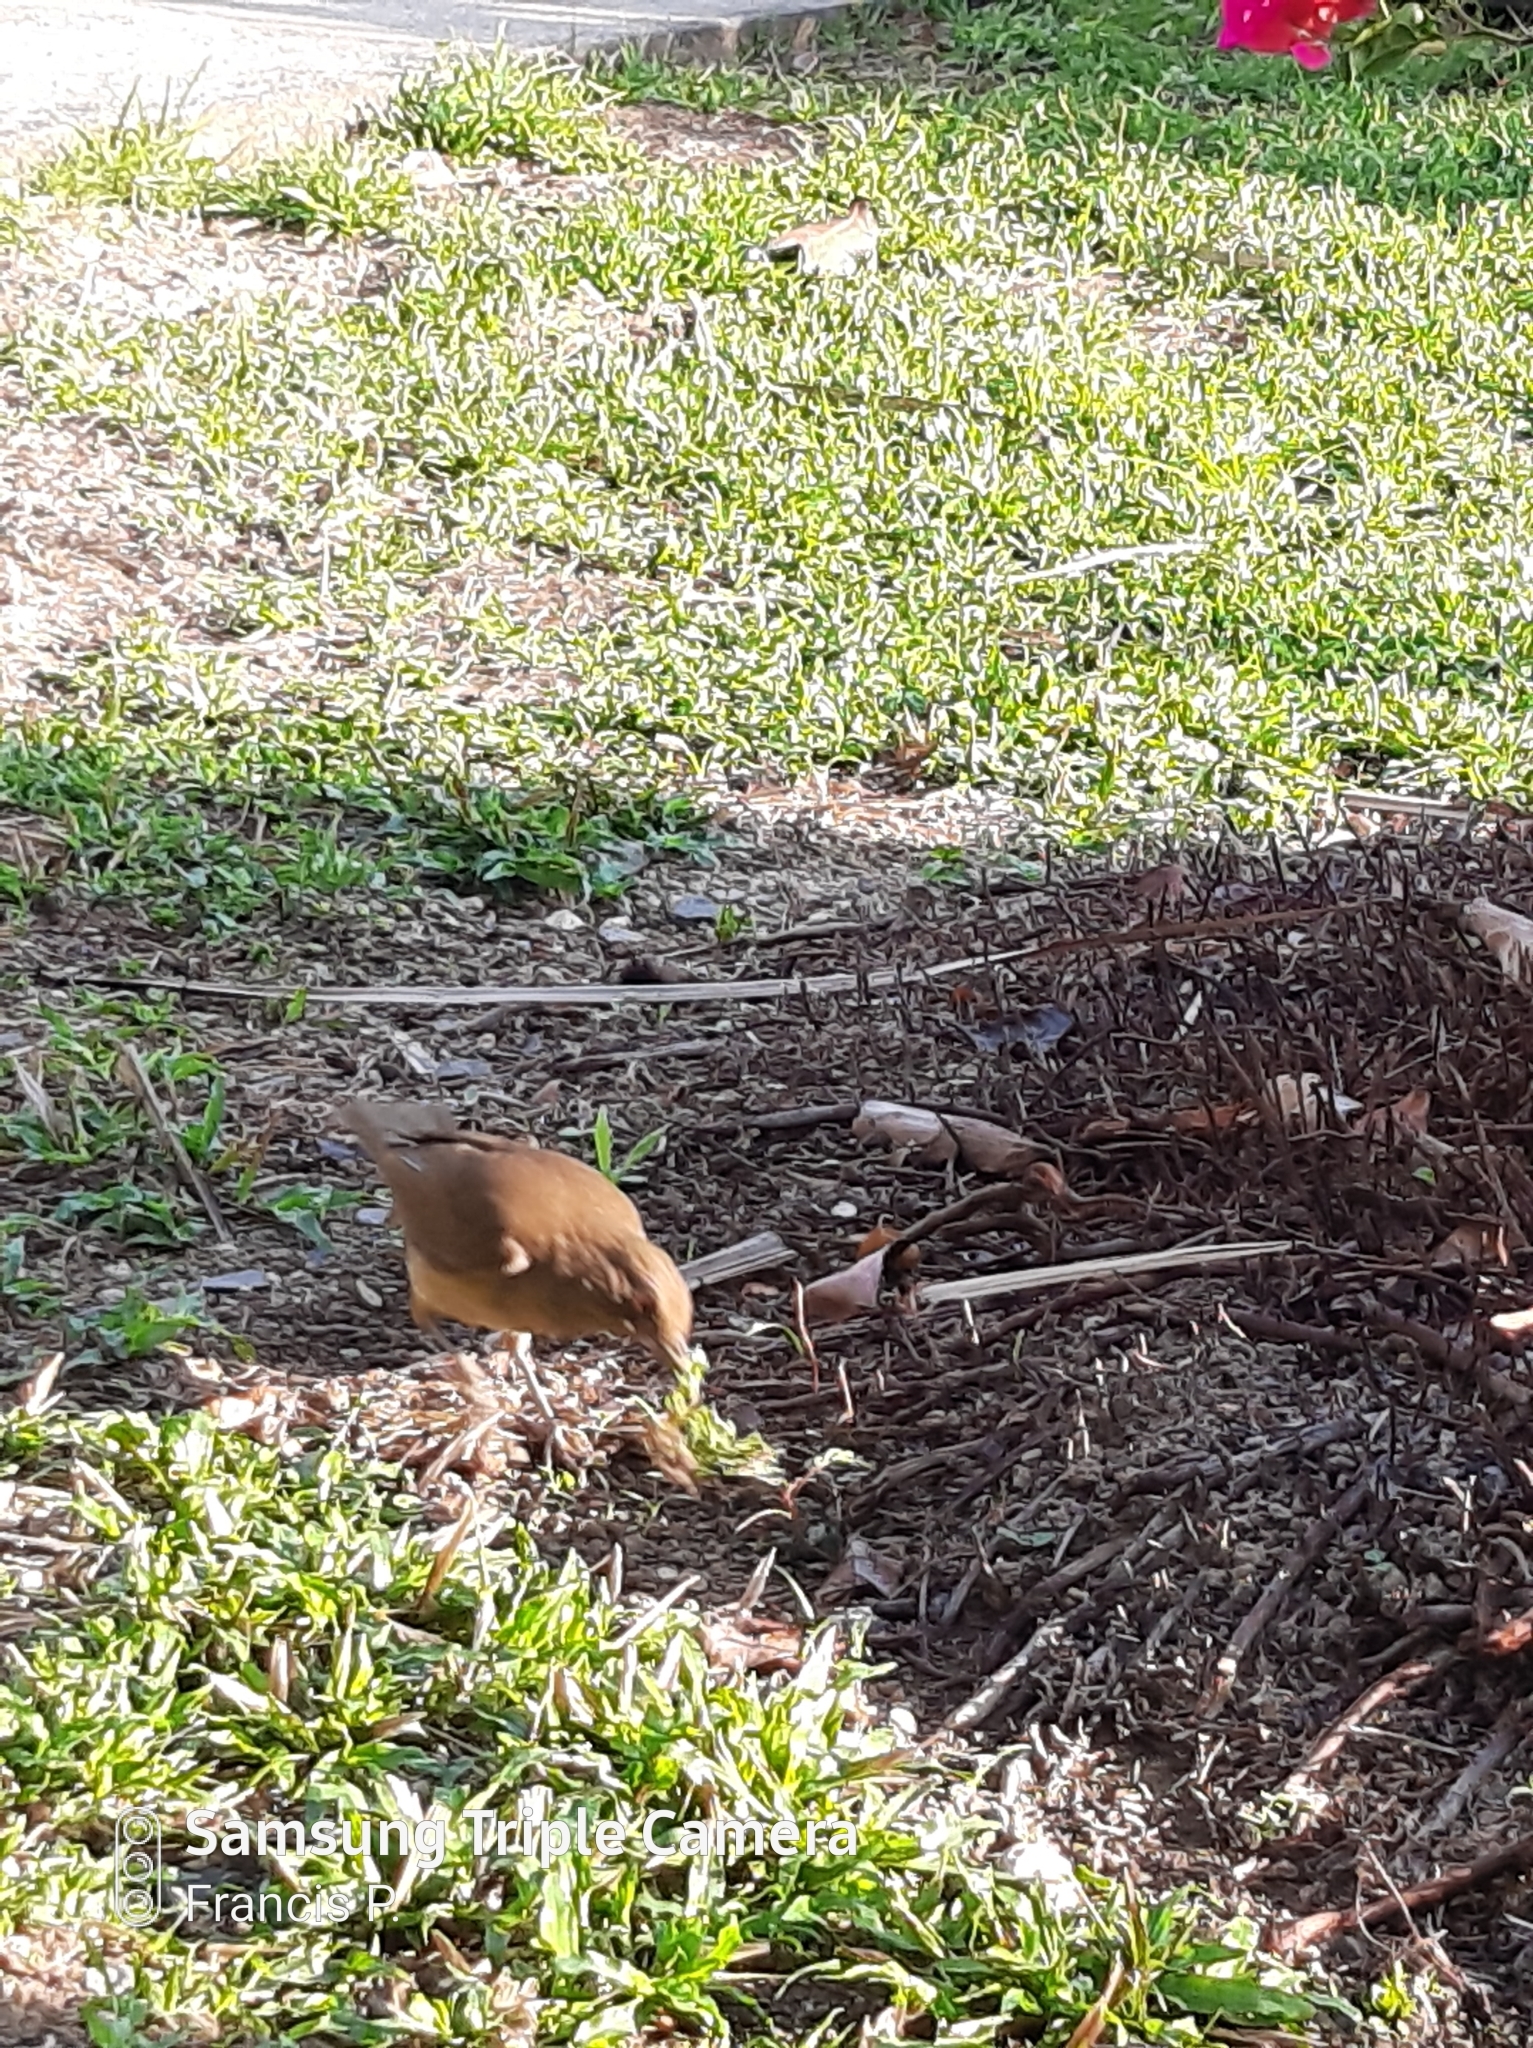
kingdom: Animalia
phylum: Chordata
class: Aves
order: Passeriformes
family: Turdidae
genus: Turdus
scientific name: Turdus grayi
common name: Clay-colored thrush
